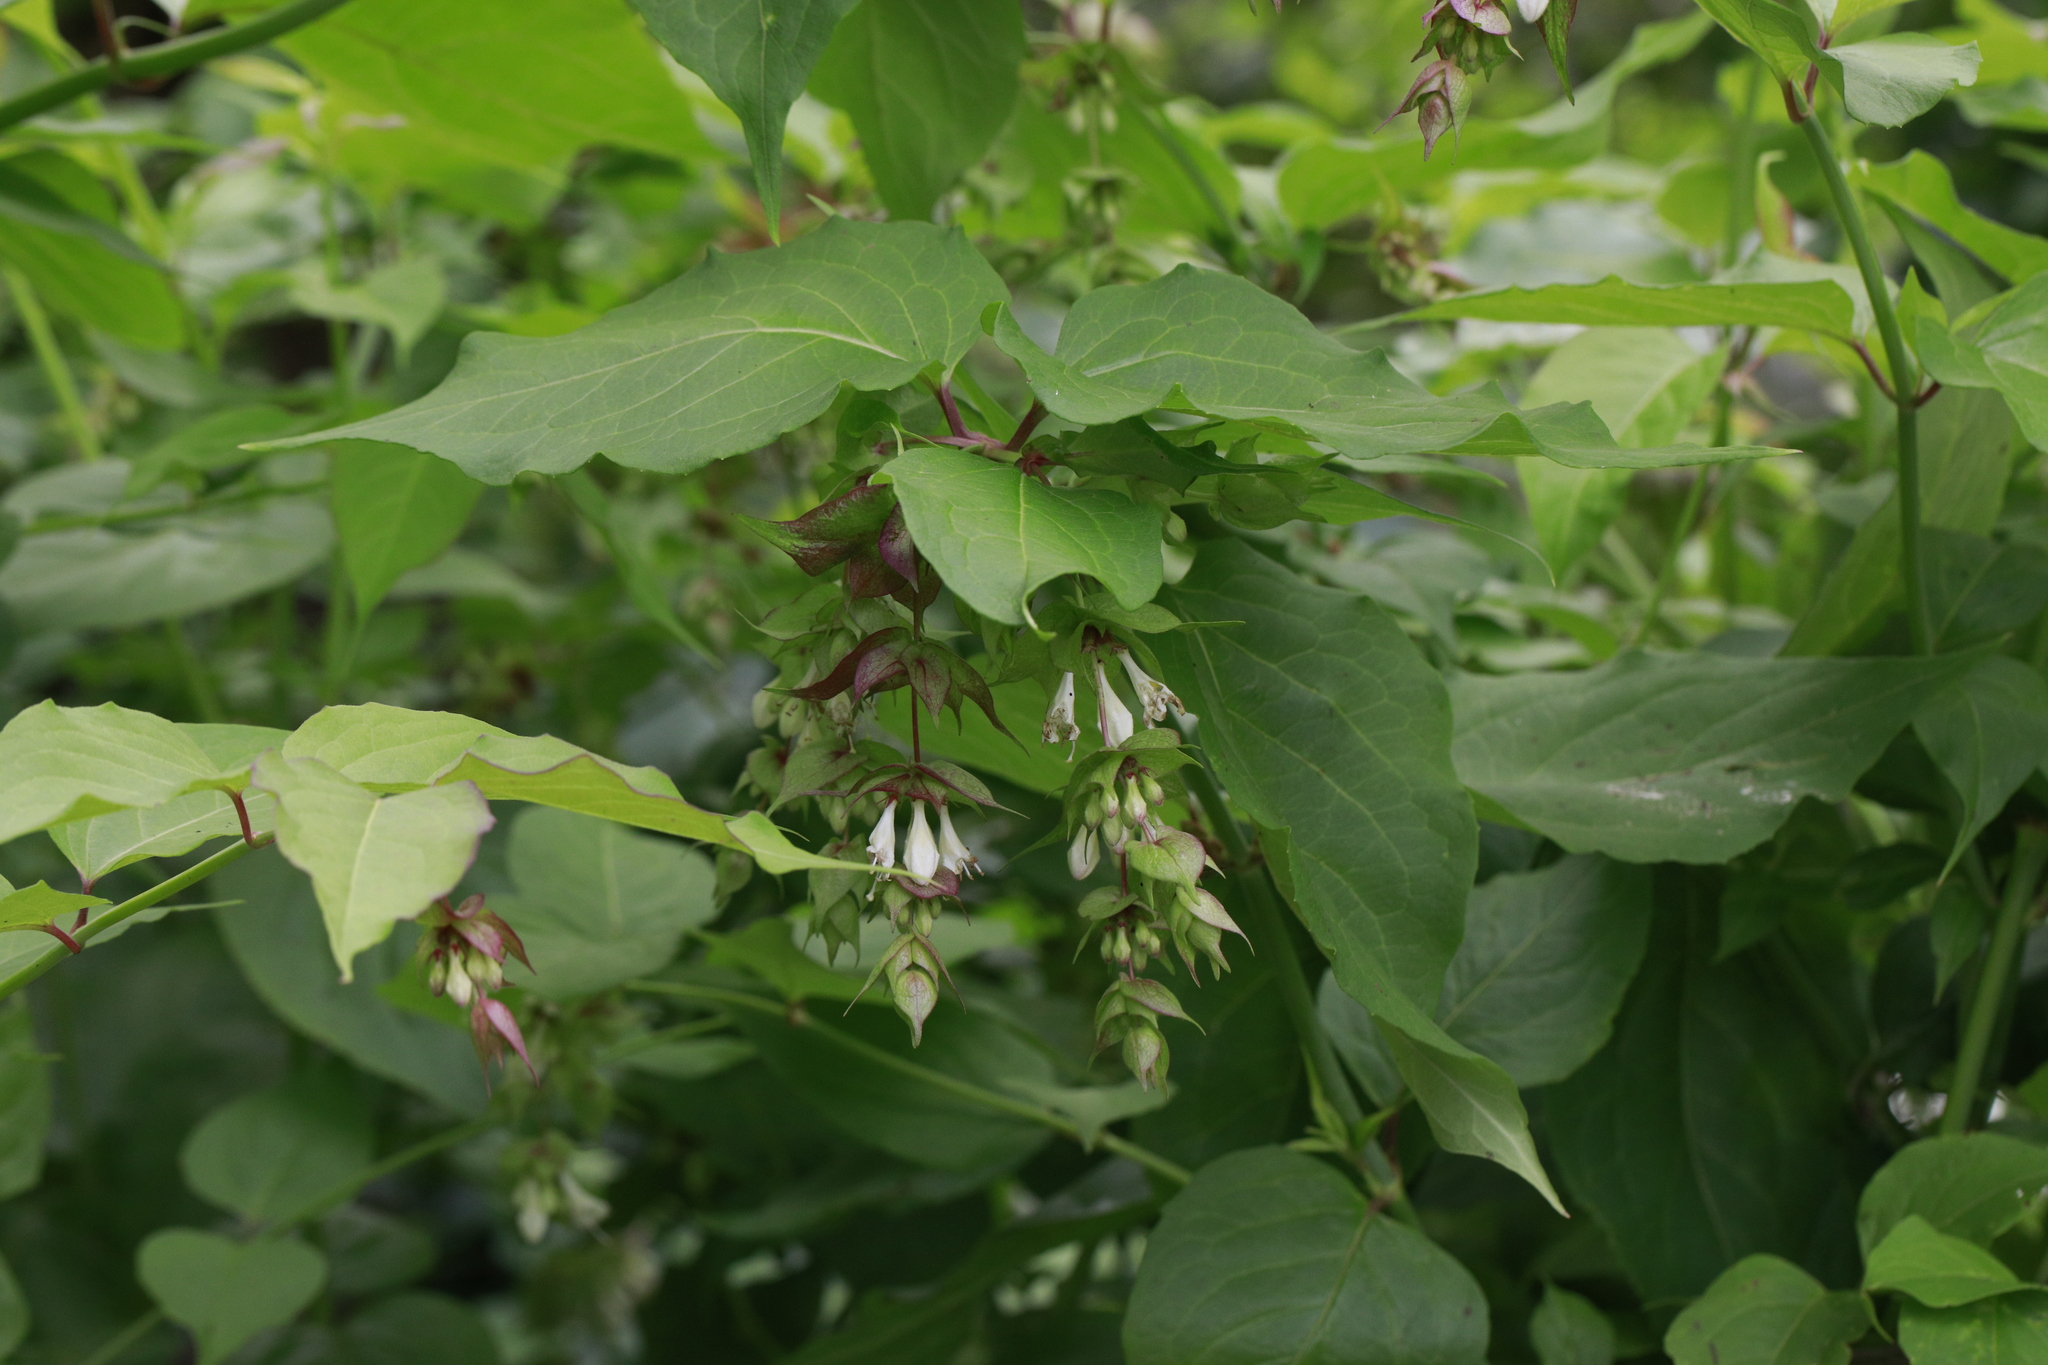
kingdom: Plantae
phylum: Tracheophyta
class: Magnoliopsida
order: Dipsacales
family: Caprifoliaceae
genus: Leycesteria
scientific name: Leycesteria formosa
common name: Himalayan honeysuckle
